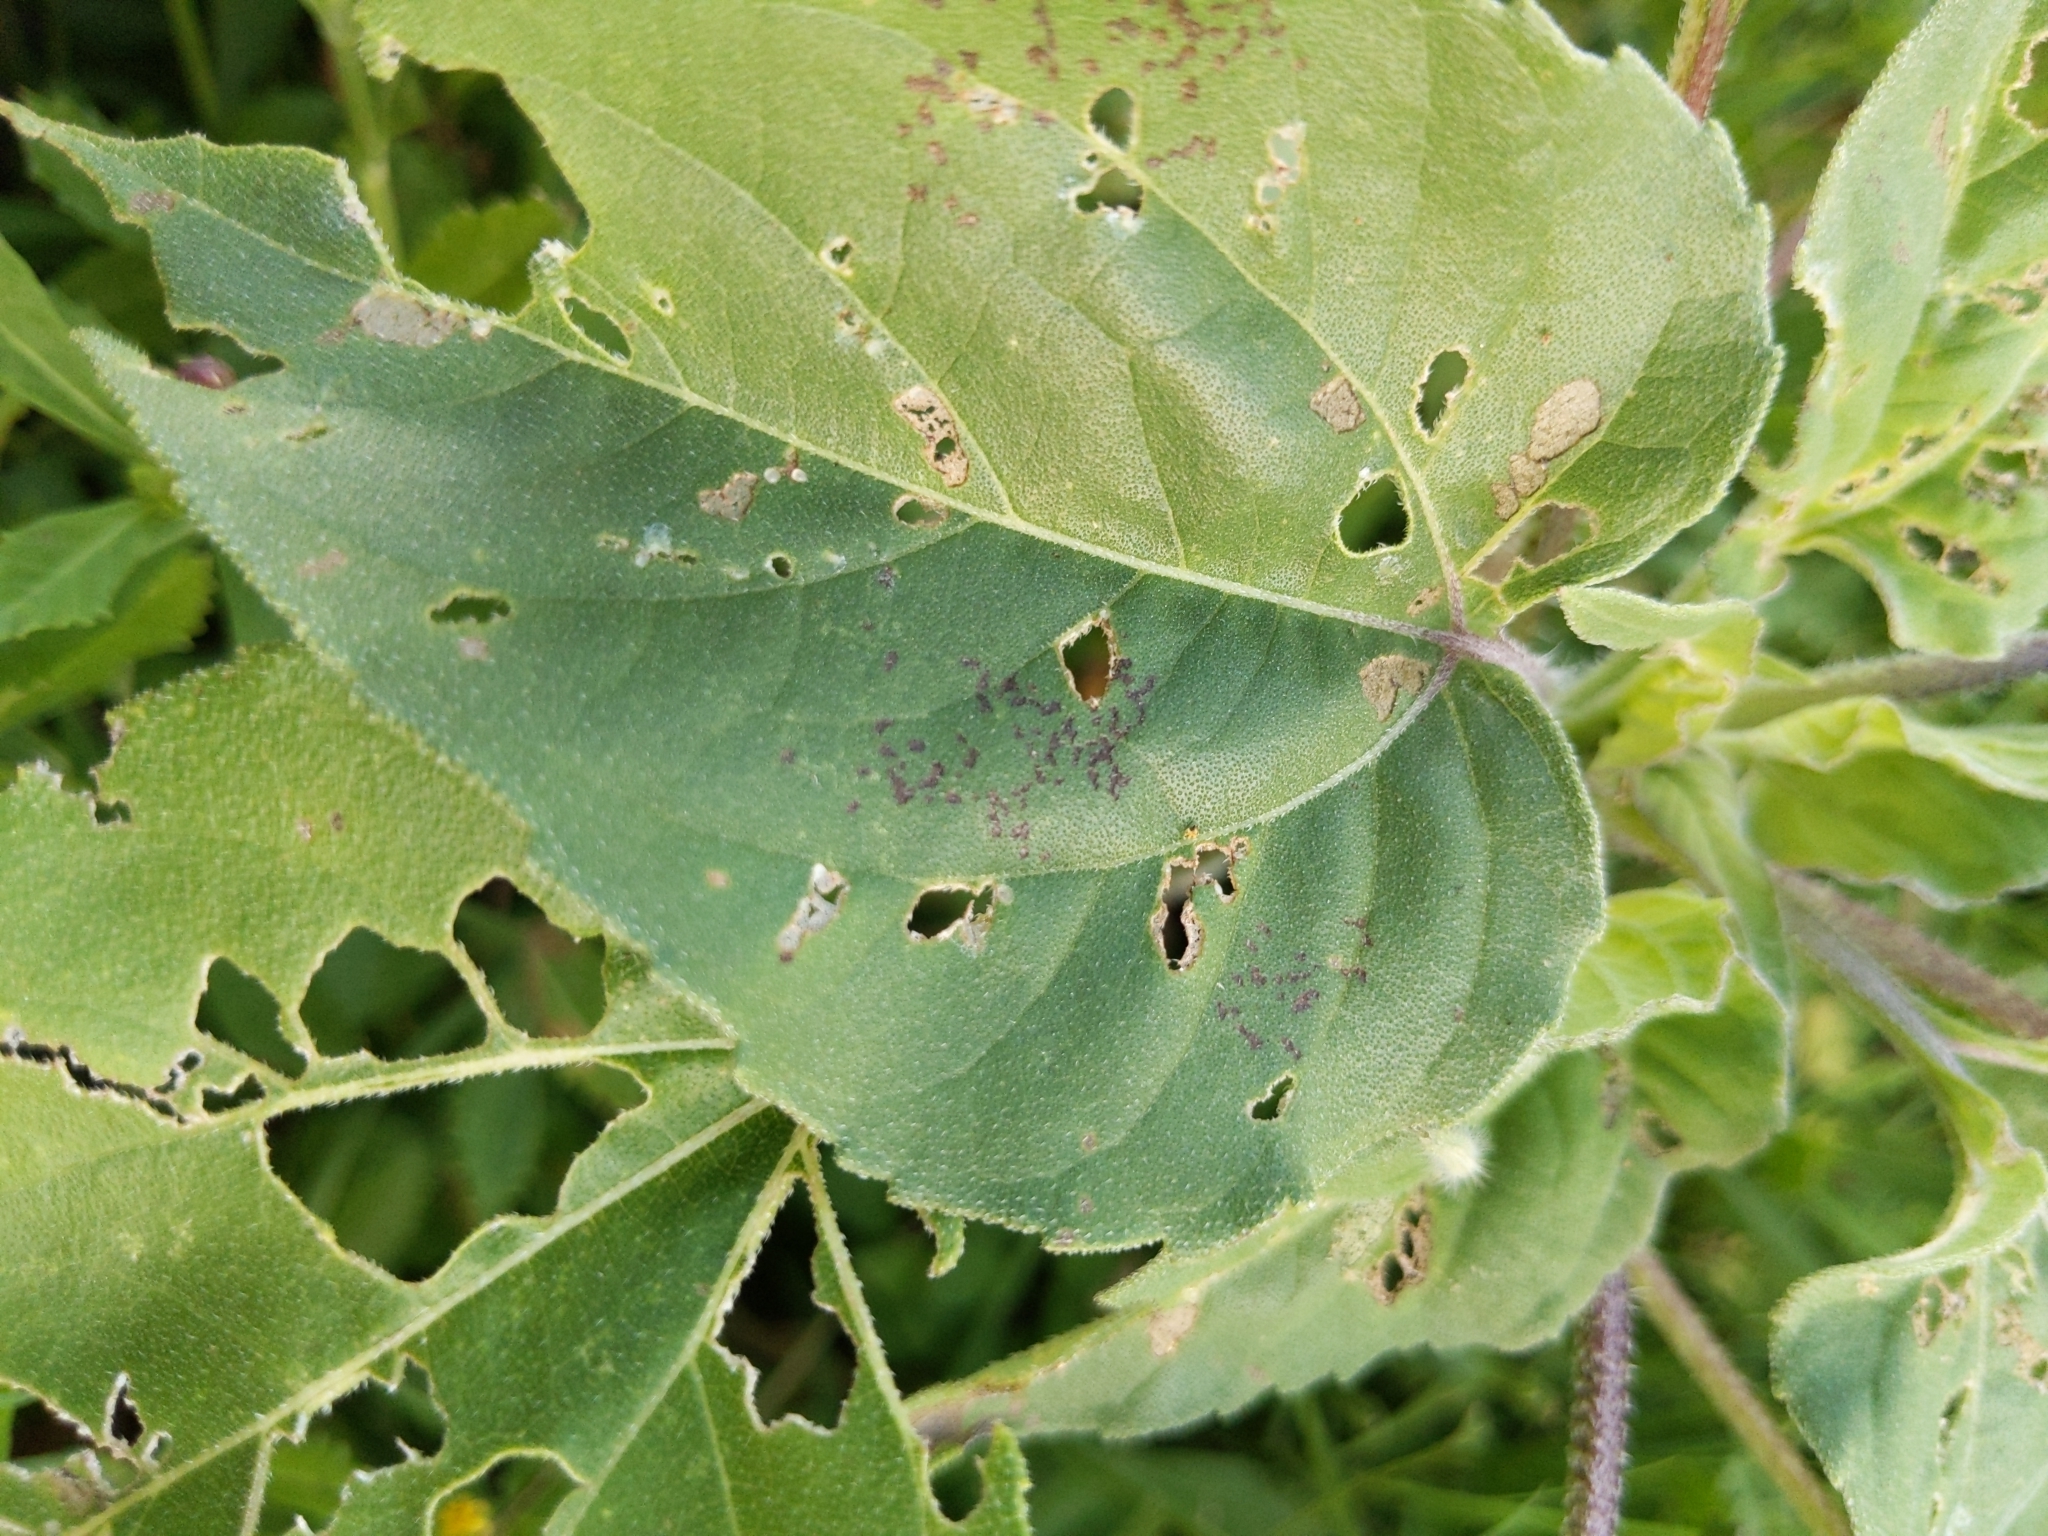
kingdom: Animalia
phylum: Arthropoda
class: Insecta
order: Hemiptera
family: Miridae
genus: Poecilocapsus
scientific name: Poecilocapsus lineatus
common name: Four-lined plant bug
